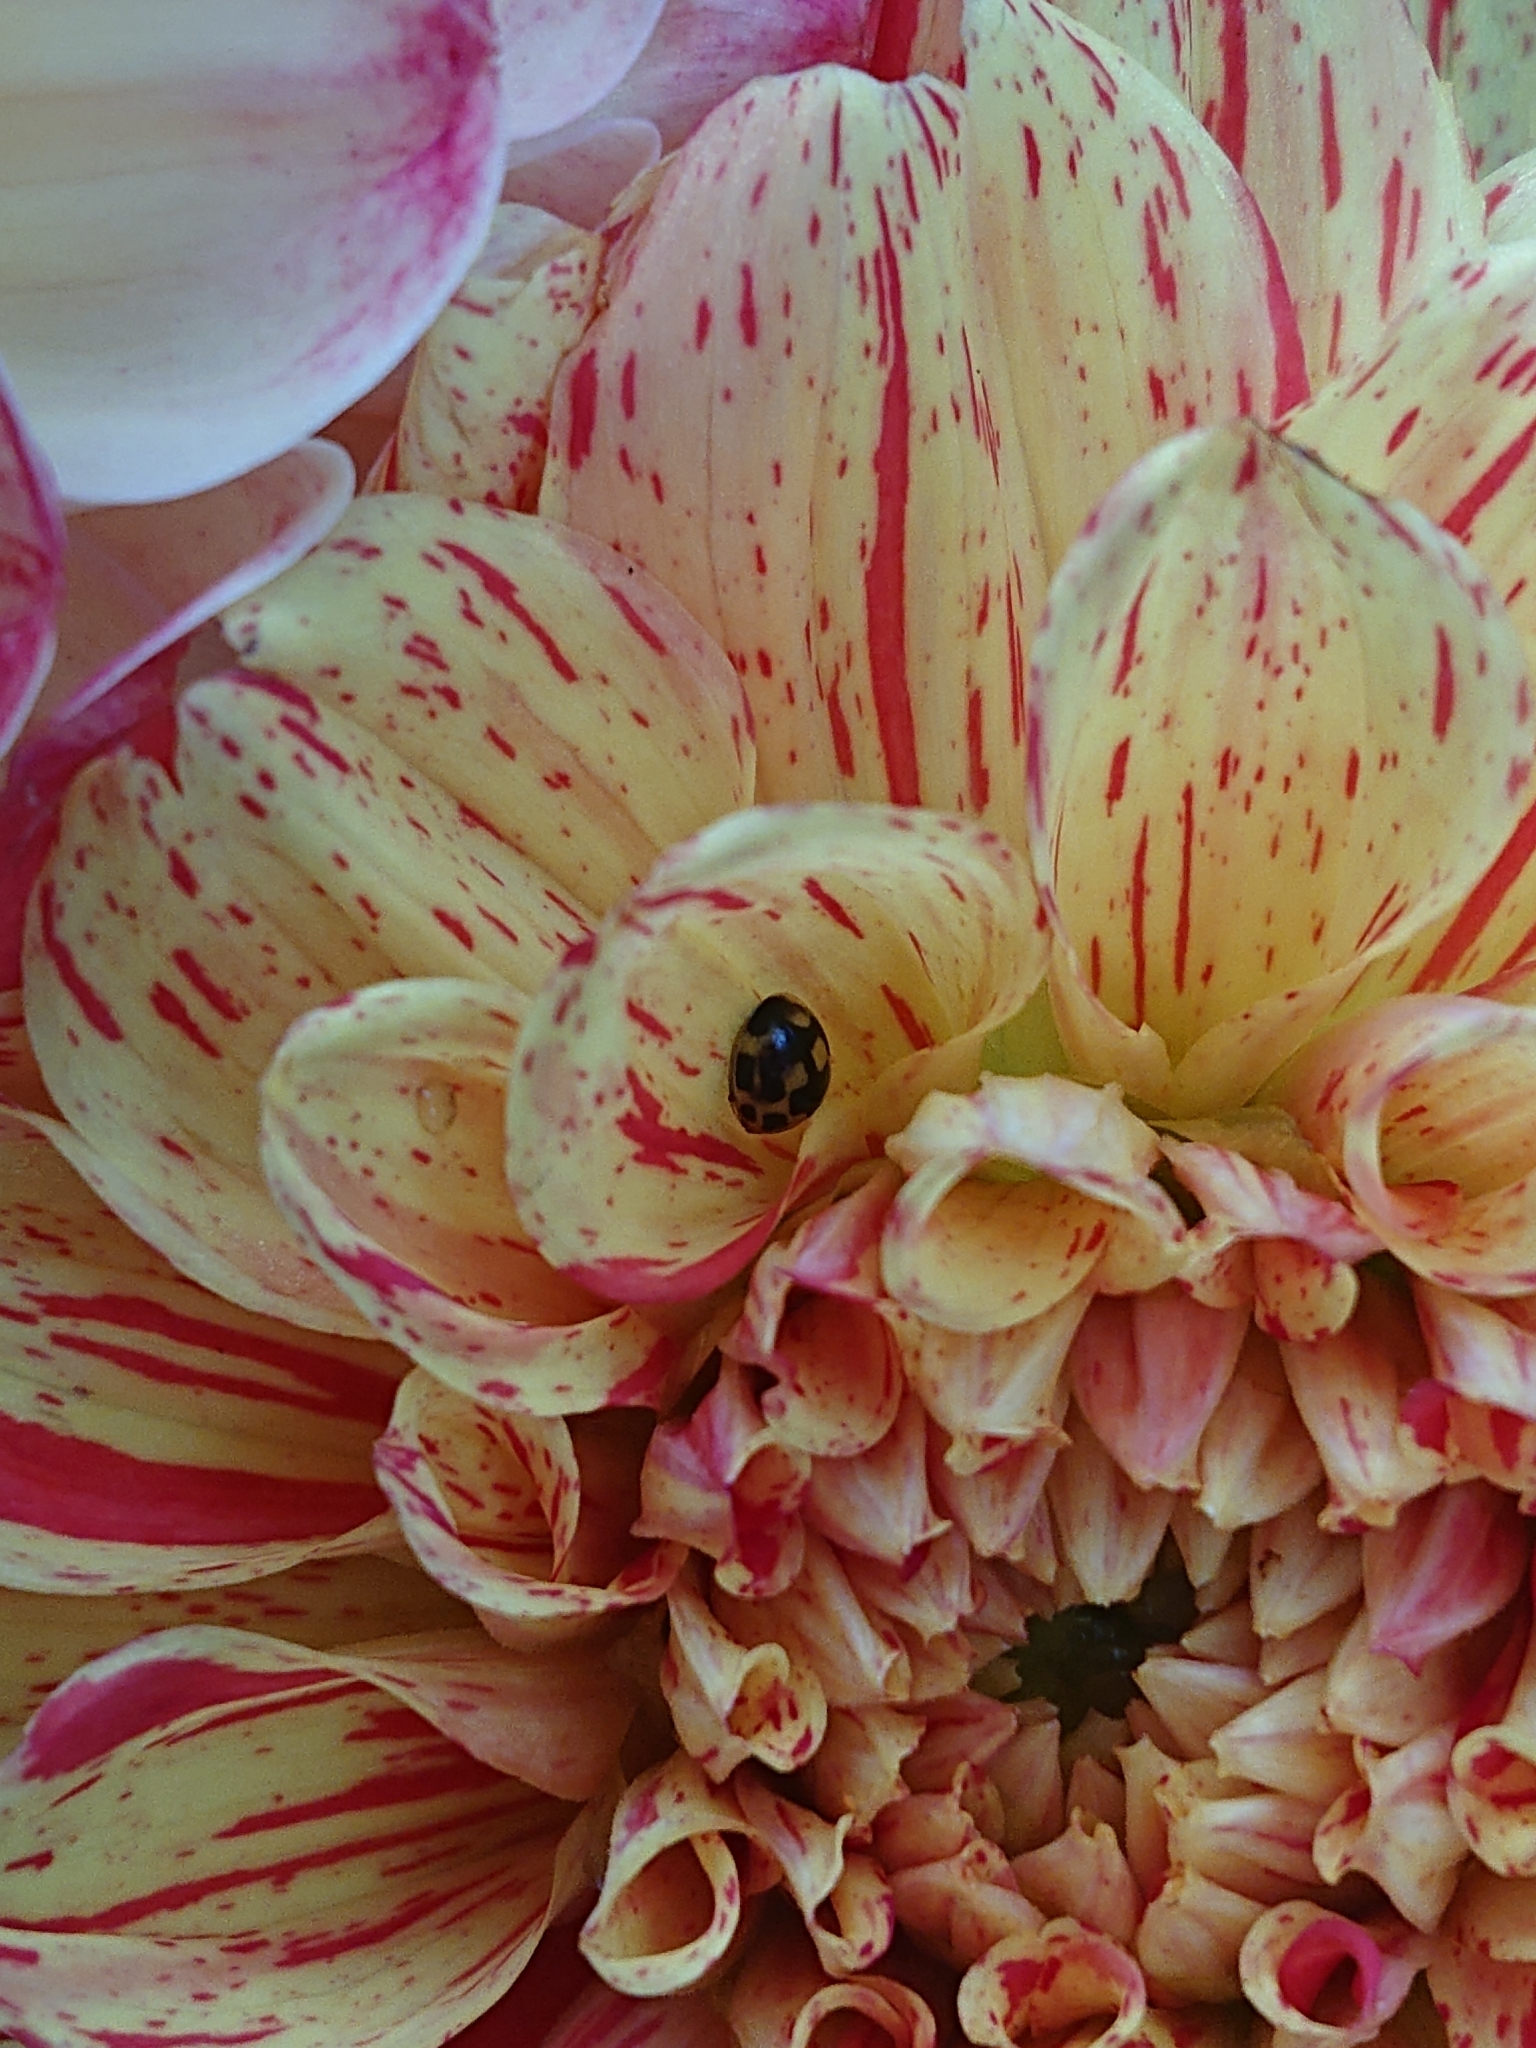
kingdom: Animalia
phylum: Arthropoda
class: Insecta
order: Coleoptera
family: Coccinellidae
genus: Propylaea
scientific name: Propylaea quatuordecimpunctata
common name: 14-spotted ladybird beetle
